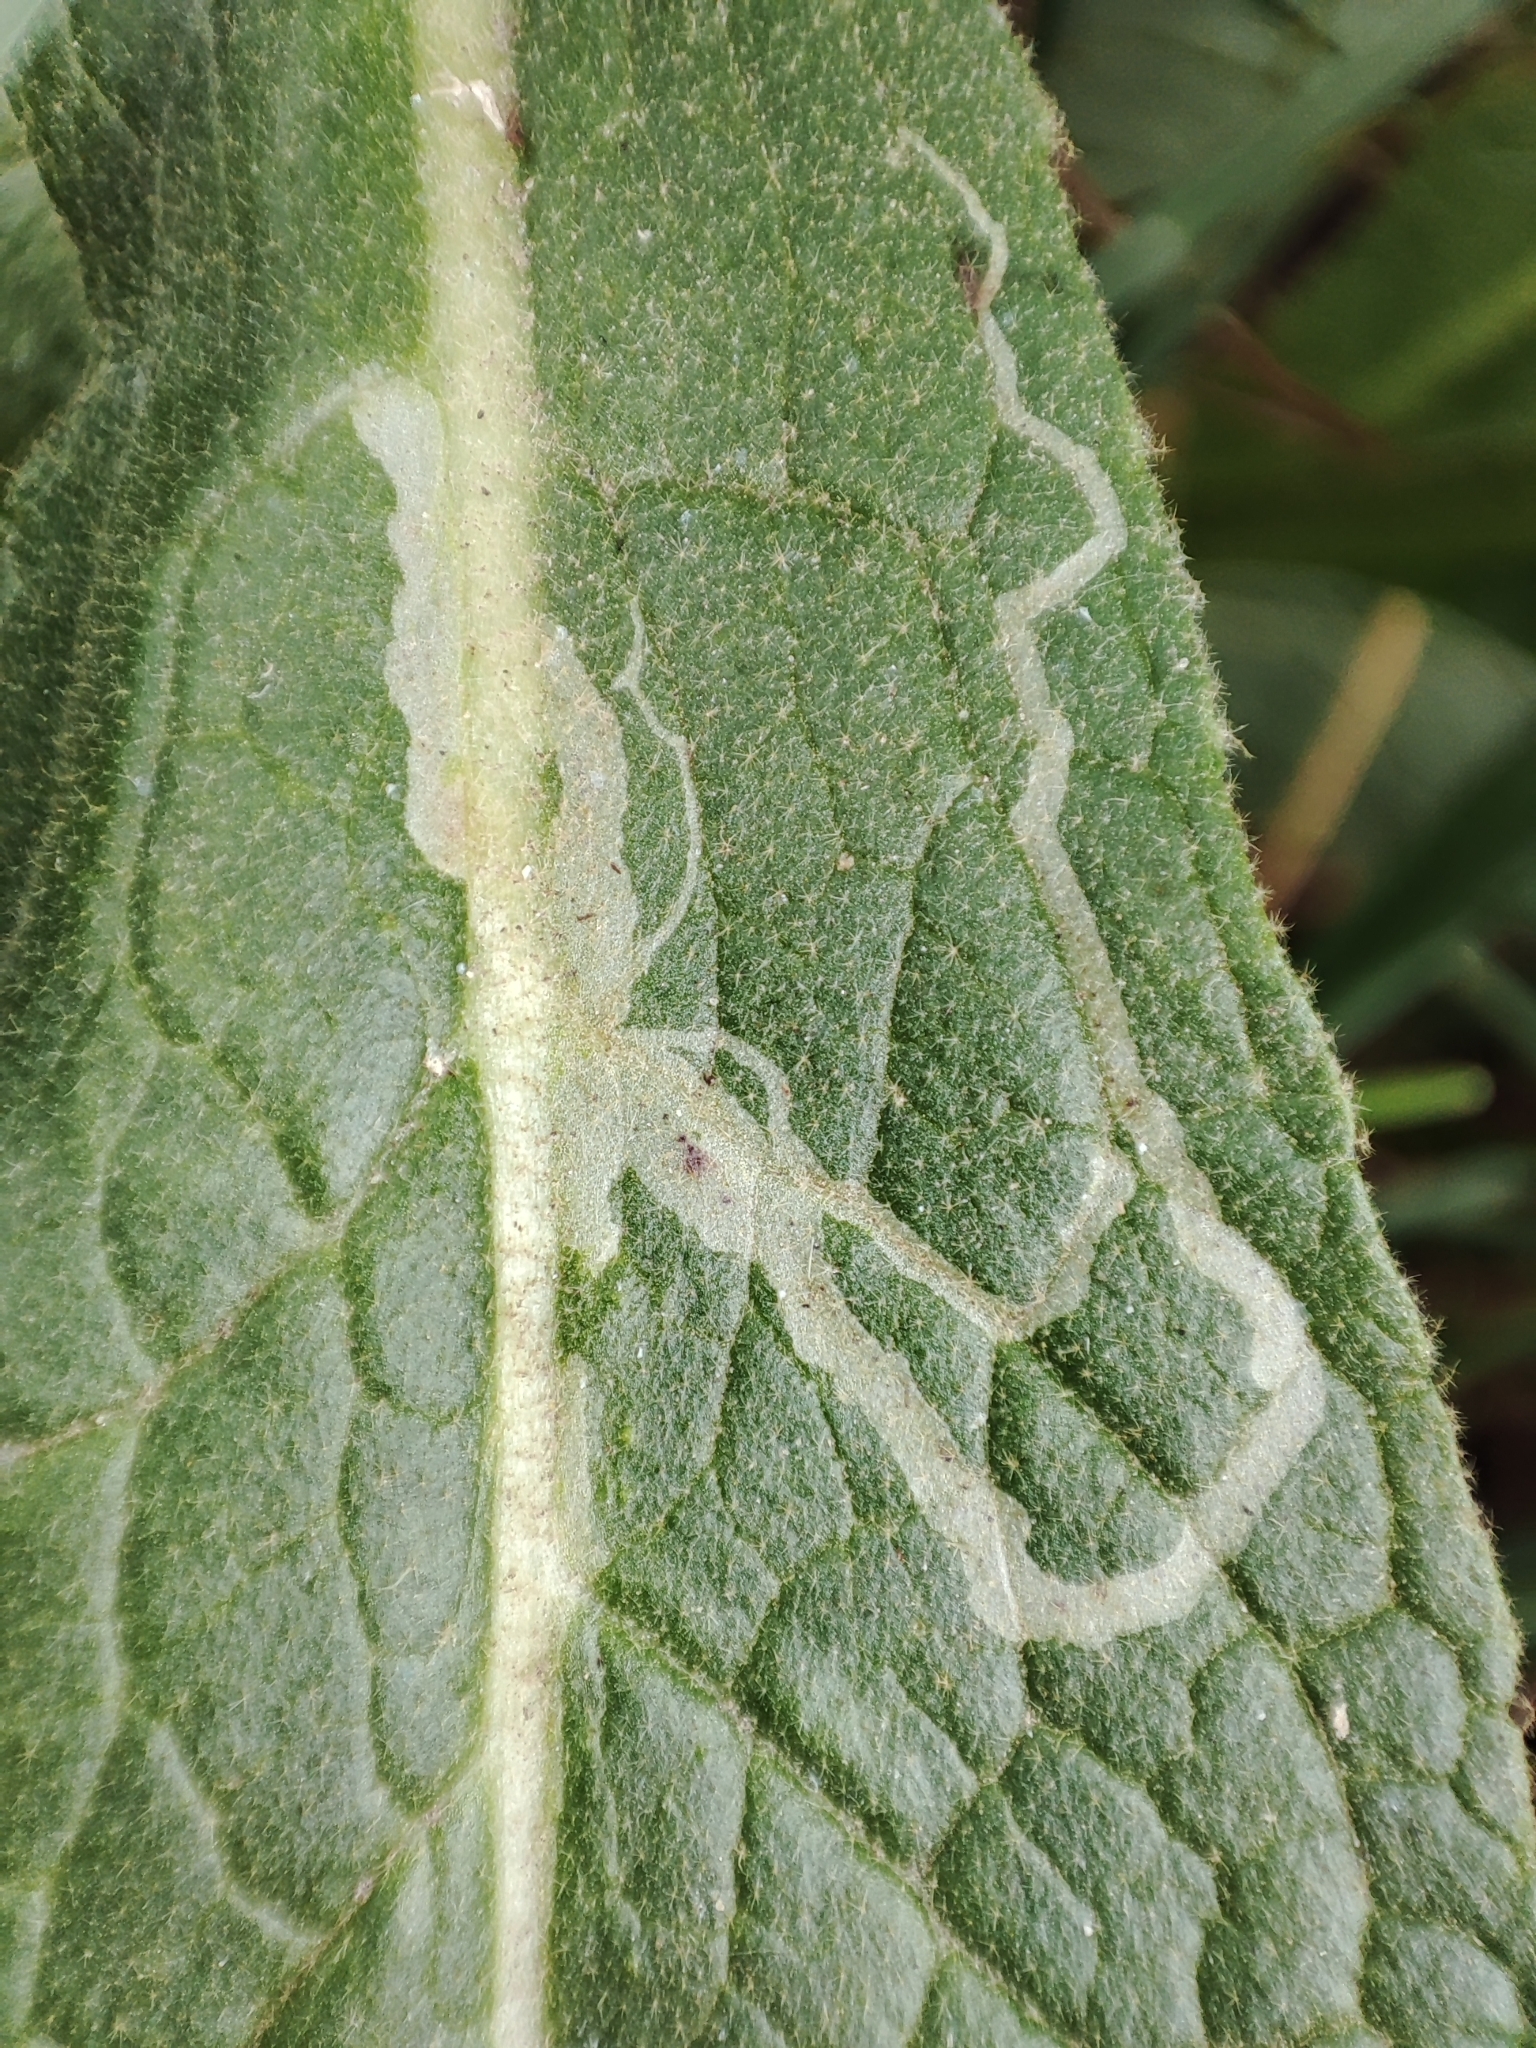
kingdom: Plantae
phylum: Tracheophyta
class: Magnoliopsida
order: Lamiales
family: Scrophulariaceae
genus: Verbascum
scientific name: Verbascum densiflorum
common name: Dense-flowered mullein
